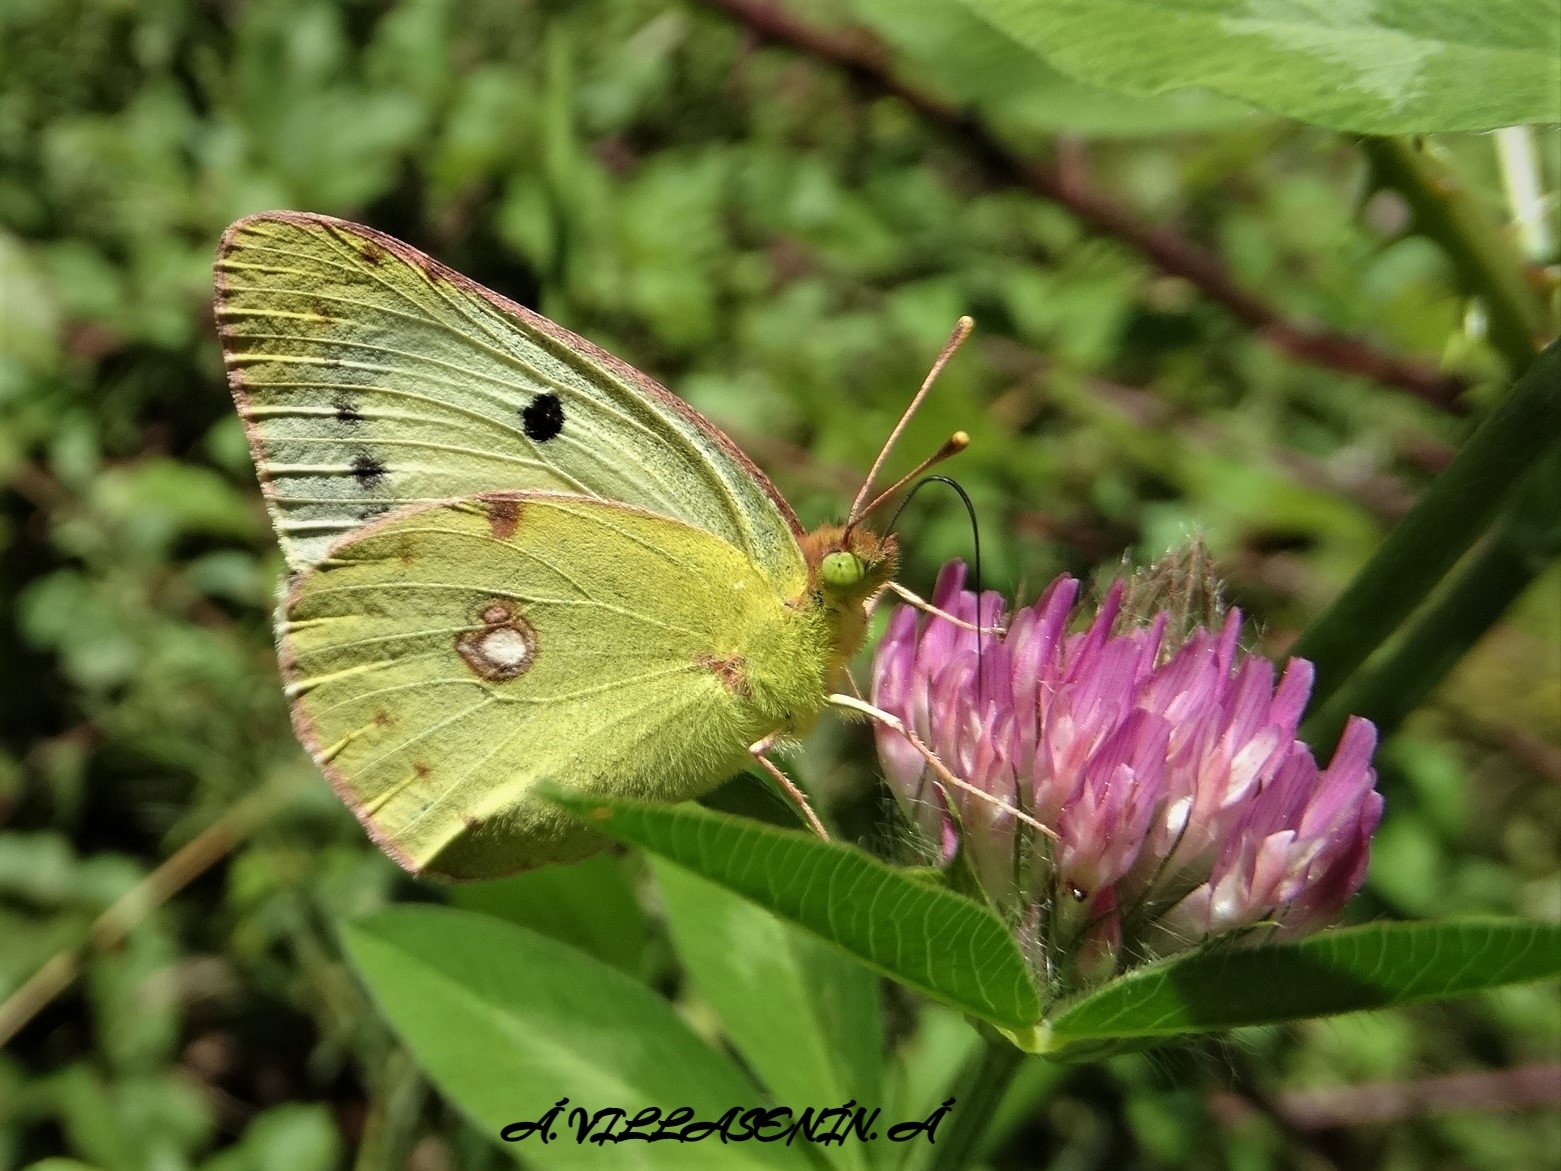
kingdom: Animalia
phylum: Arthropoda
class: Insecta
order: Lepidoptera
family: Pieridae
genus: Colias
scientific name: Colias croceus
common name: Clouded yellow
